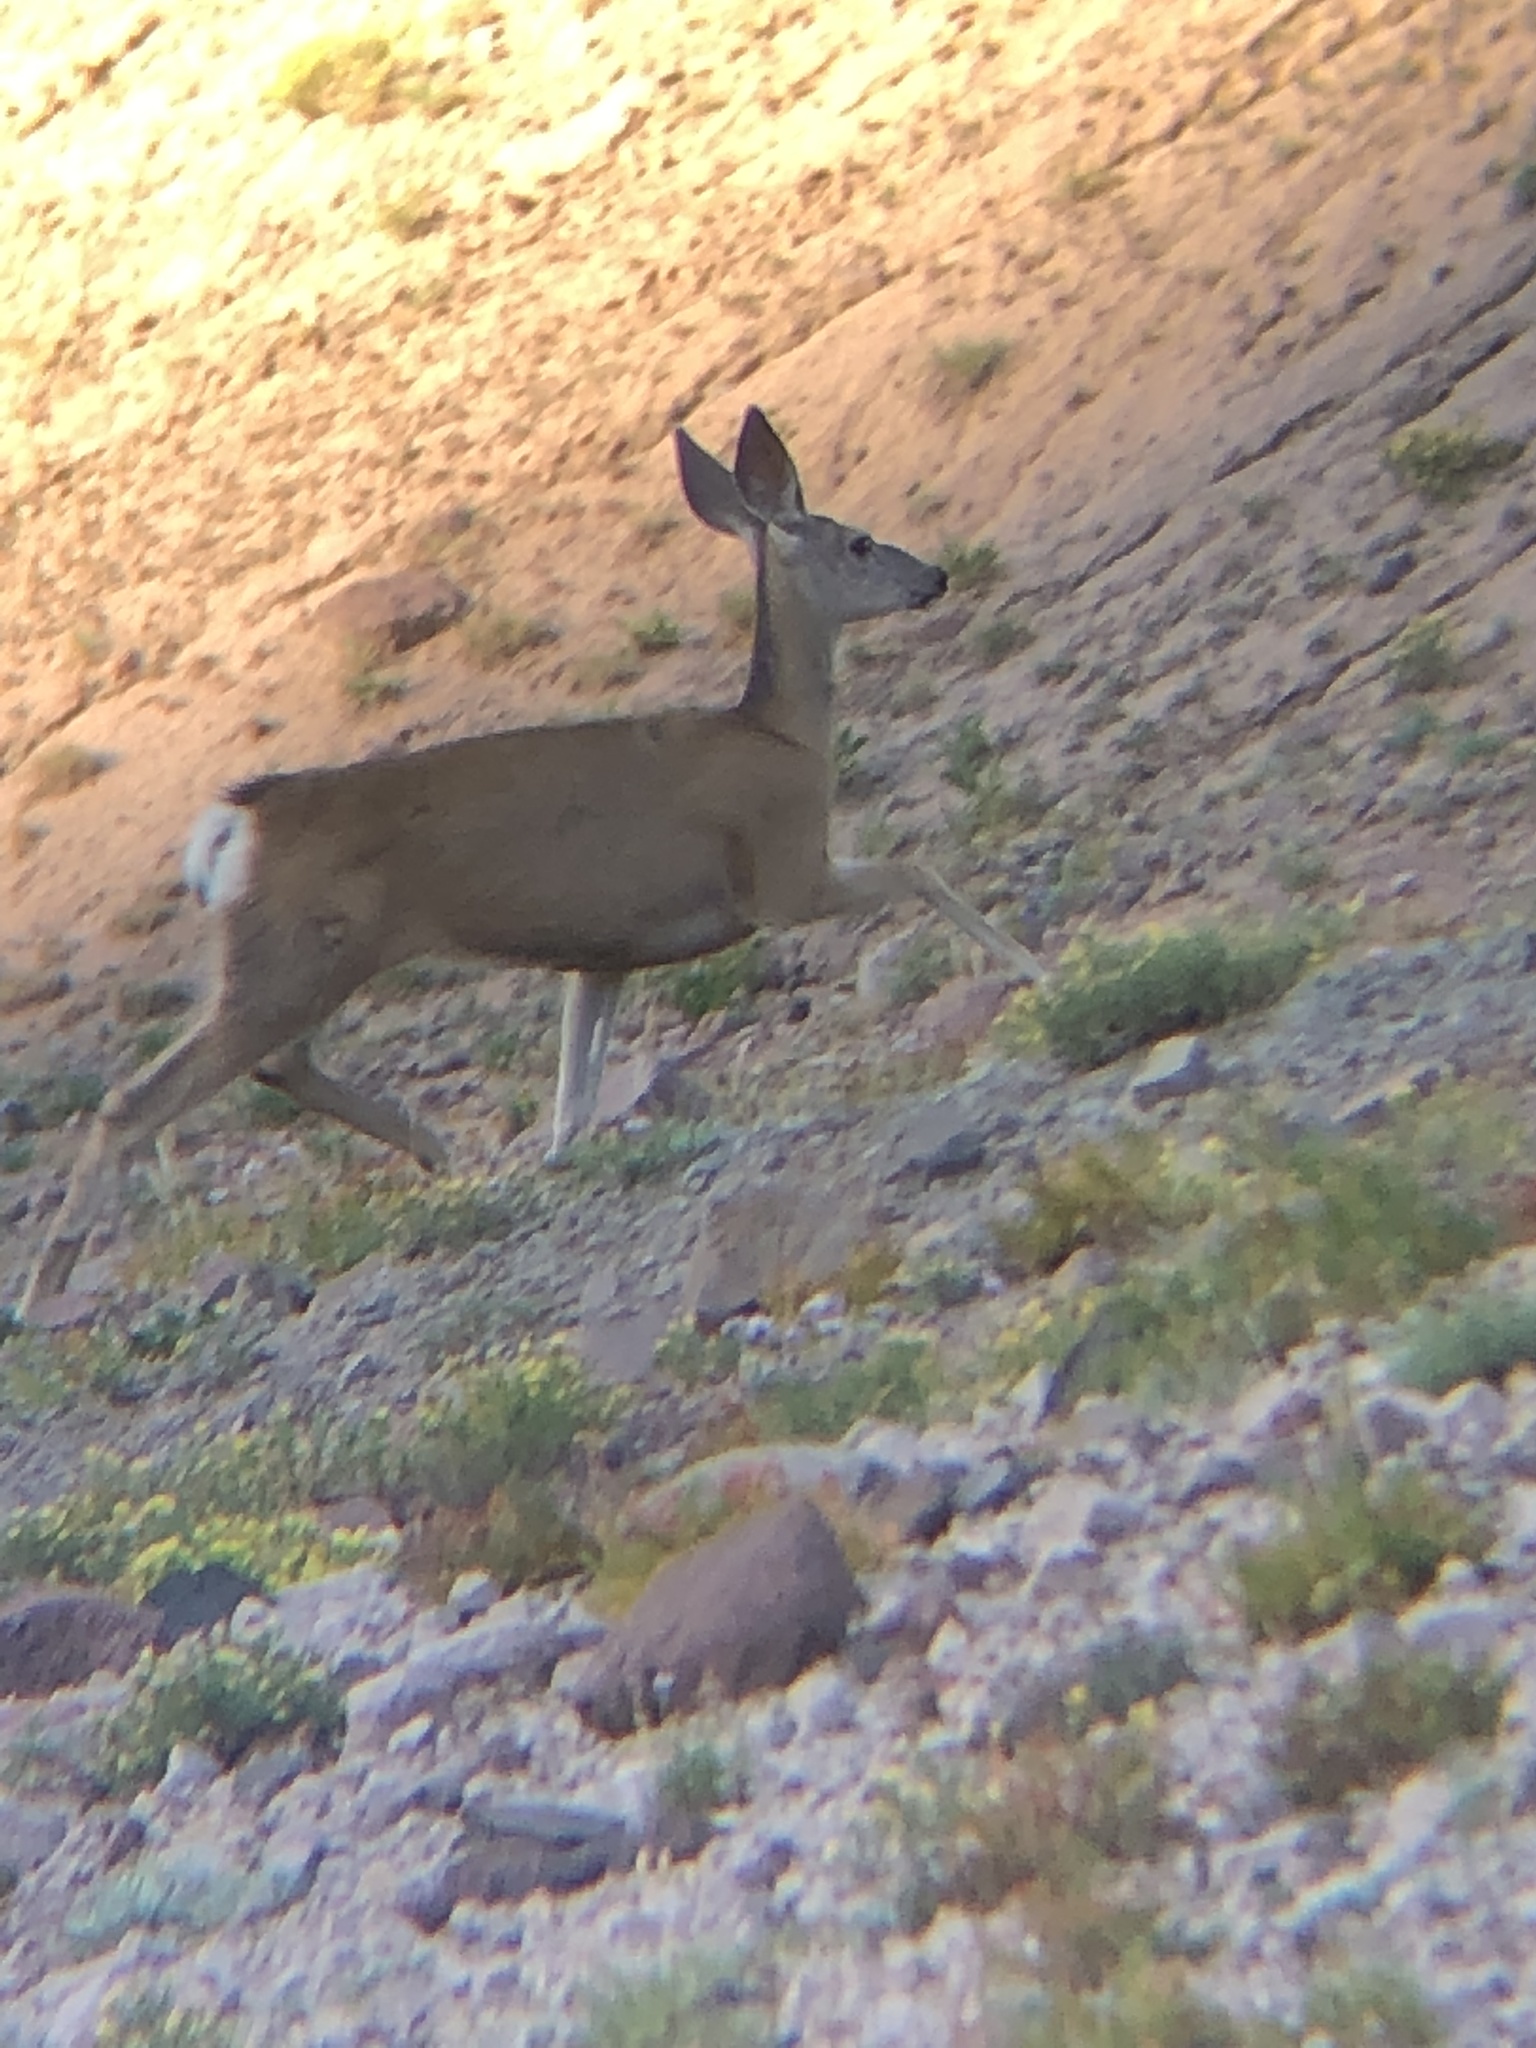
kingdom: Animalia
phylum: Chordata
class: Mammalia
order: Artiodactyla
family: Cervidae
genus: Odocoileus
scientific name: Odocoileus hemionus
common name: Mule deer
